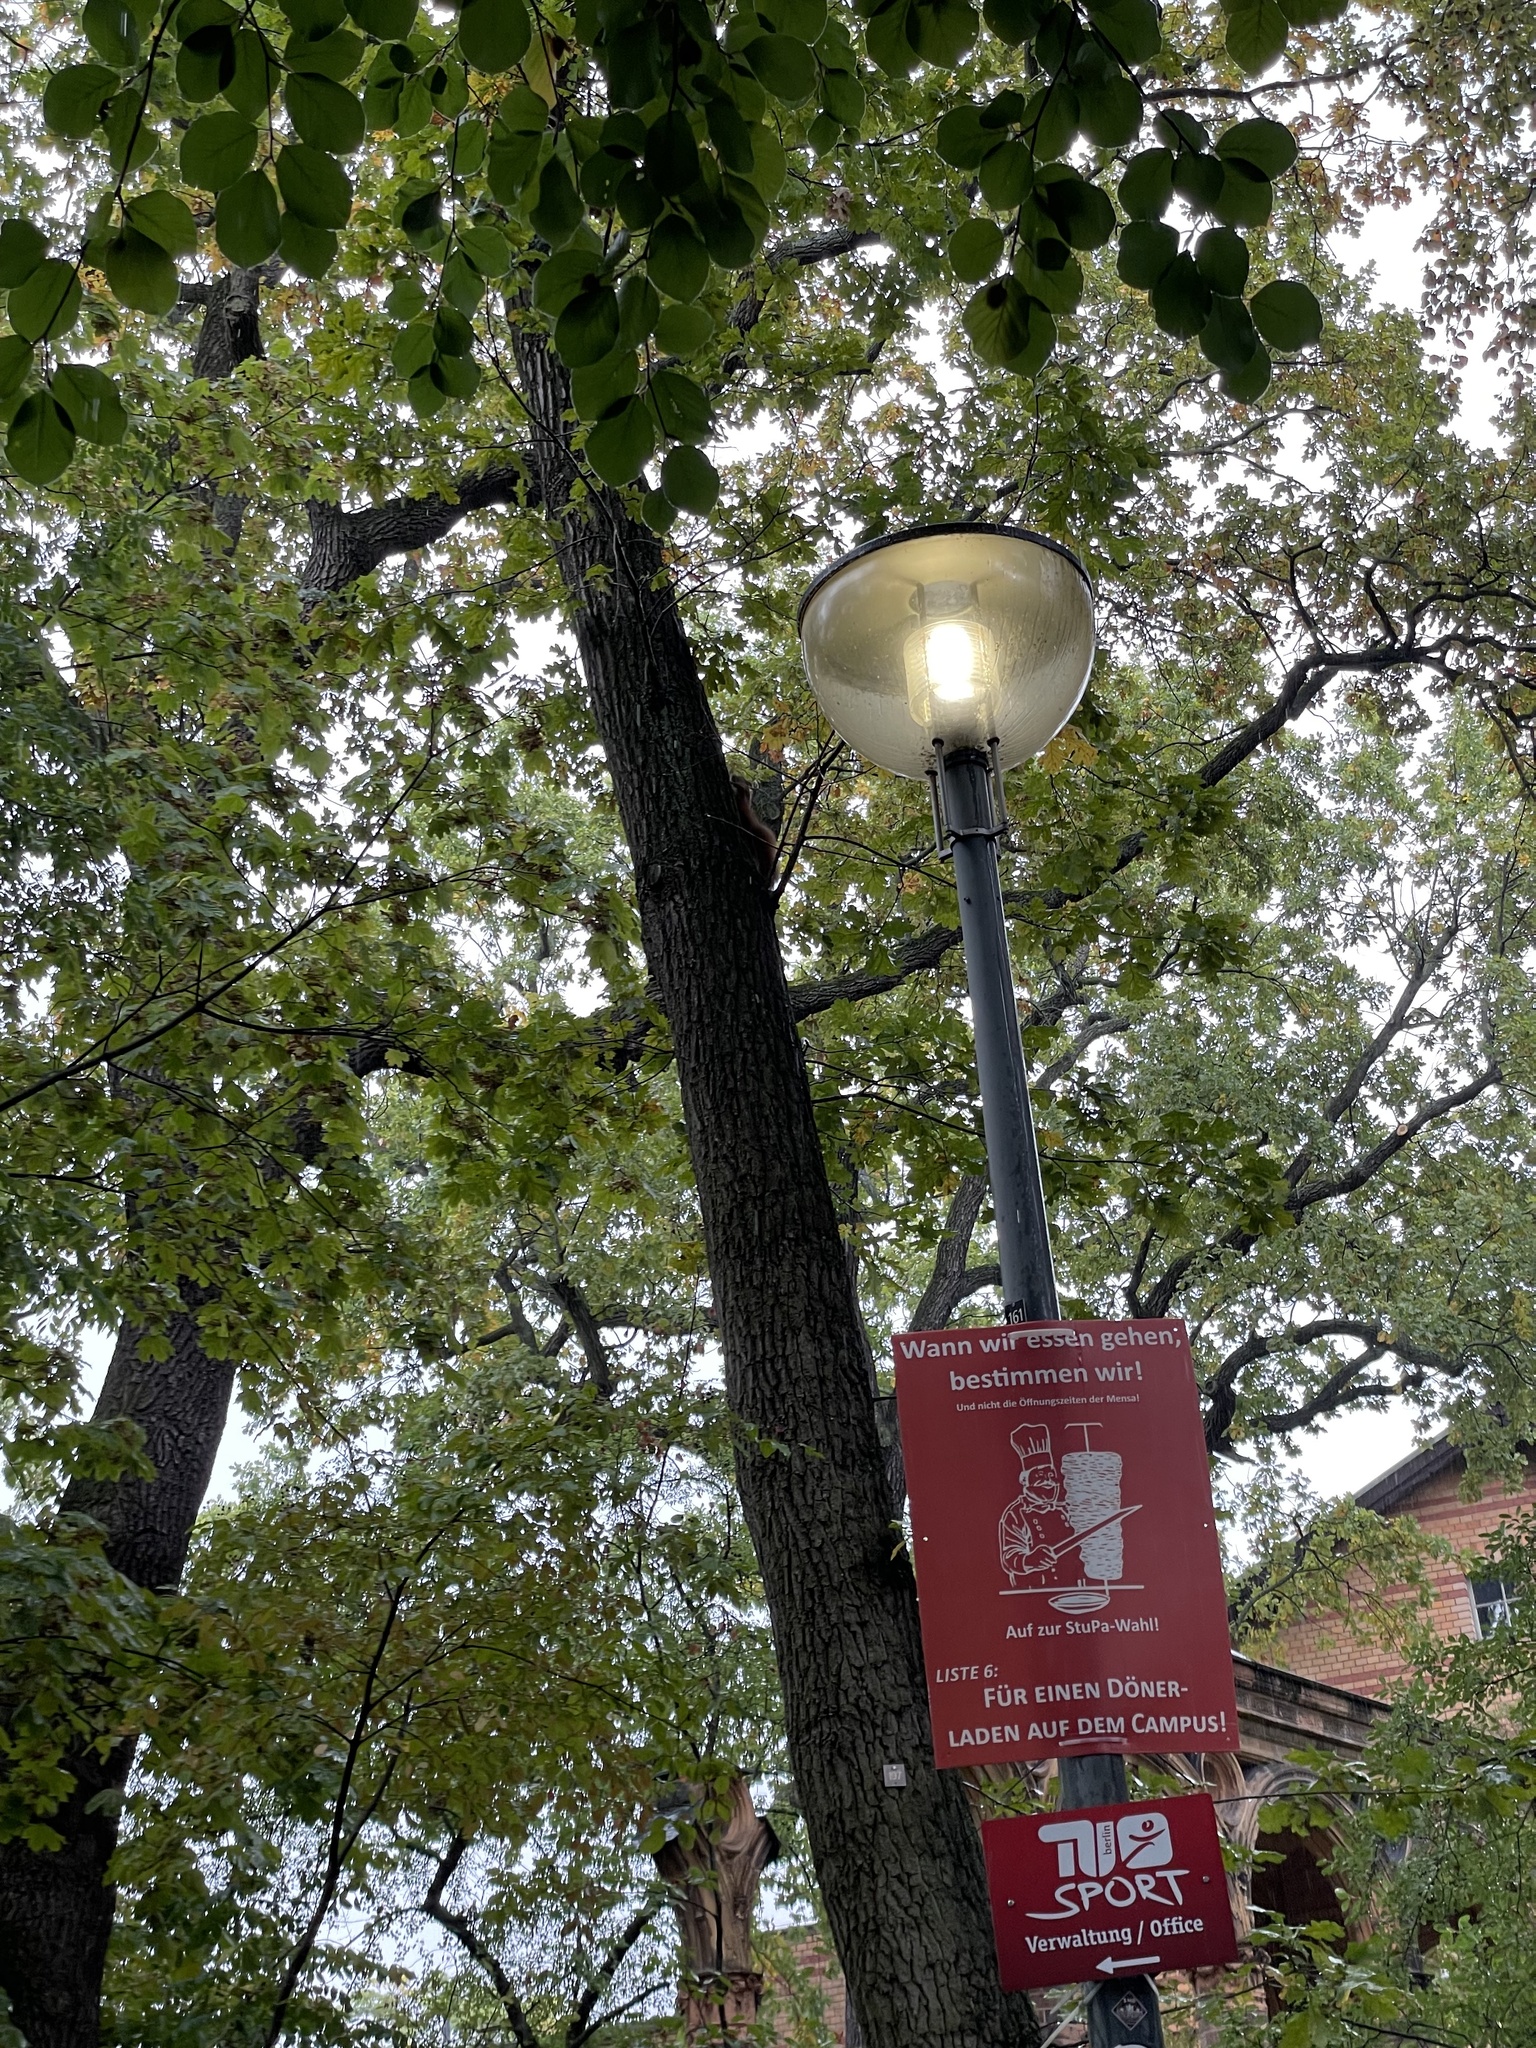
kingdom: Animalia
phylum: Chordata
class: Mammalia
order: Rodentia
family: Sciuridae
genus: Sciurus
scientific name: Sciurus vulgaris
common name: Eurasian red squirrel
